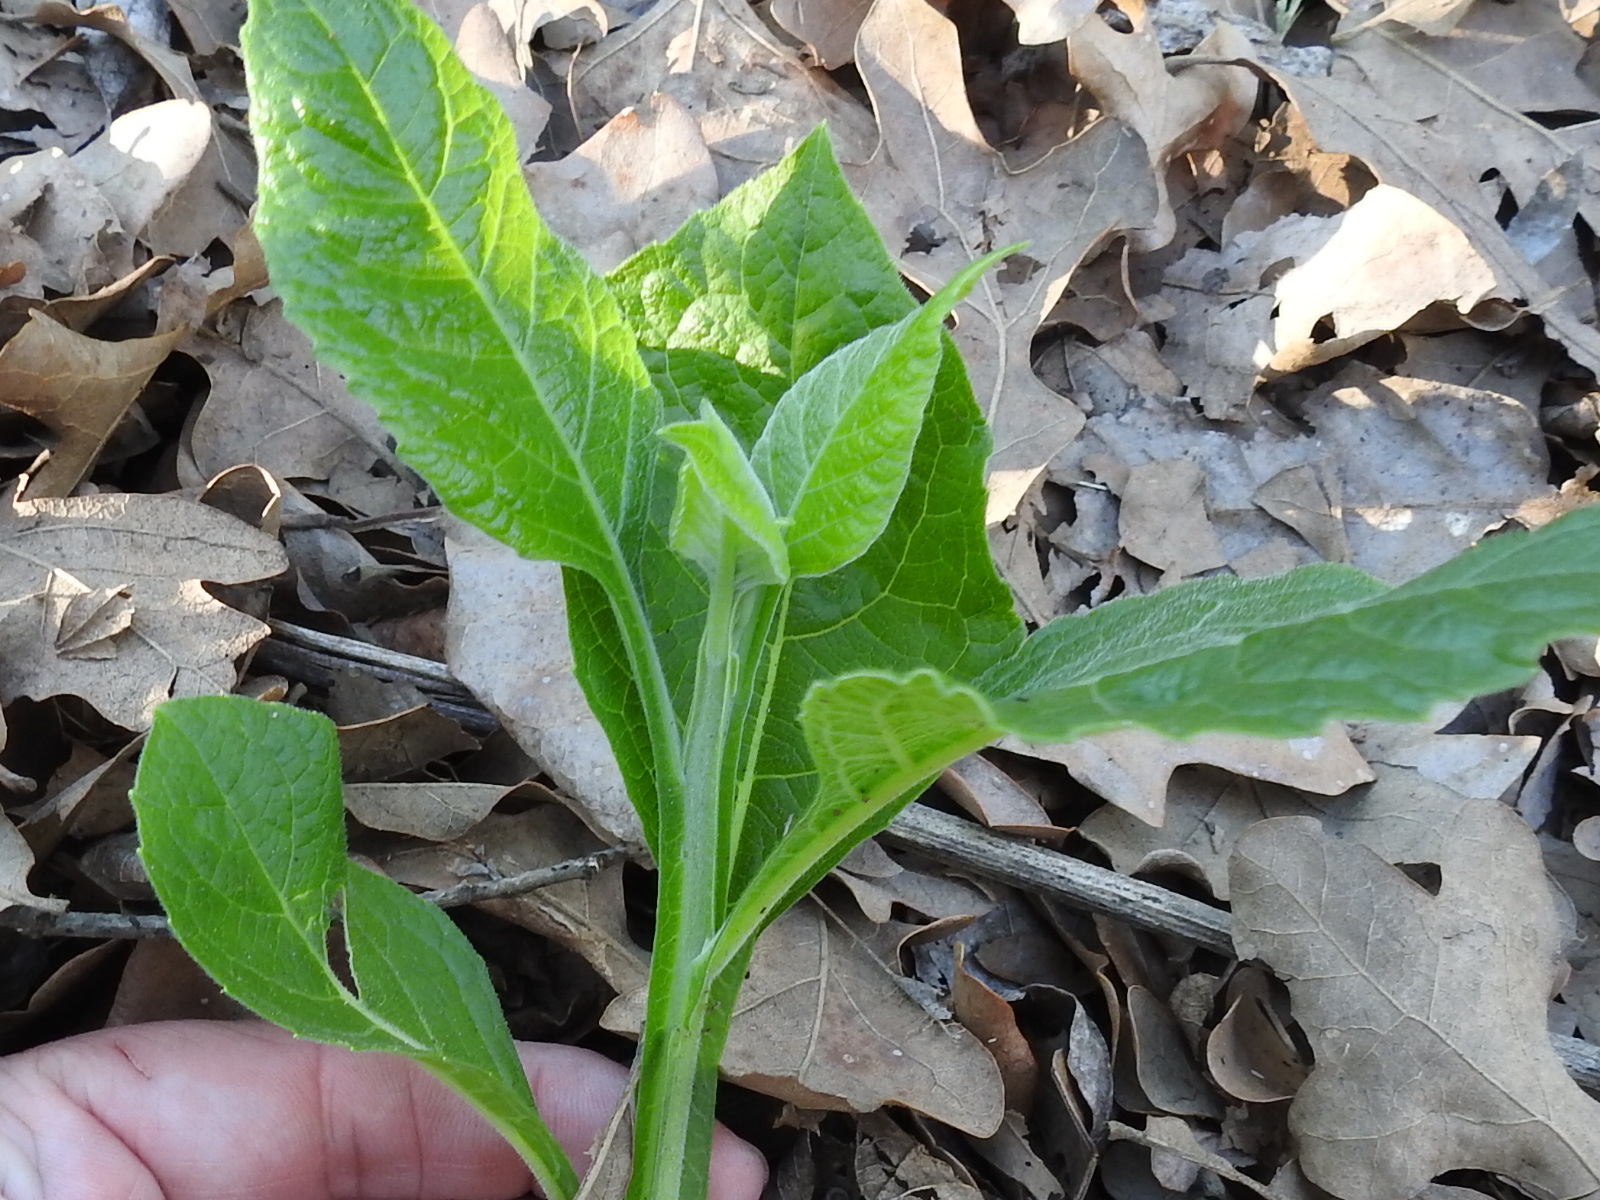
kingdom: Plantae
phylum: Tracheophyta
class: Magnoliopsida
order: Asterales
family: Asteraceae
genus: Verbesina
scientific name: Verbesina virginica
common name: Frostweed
